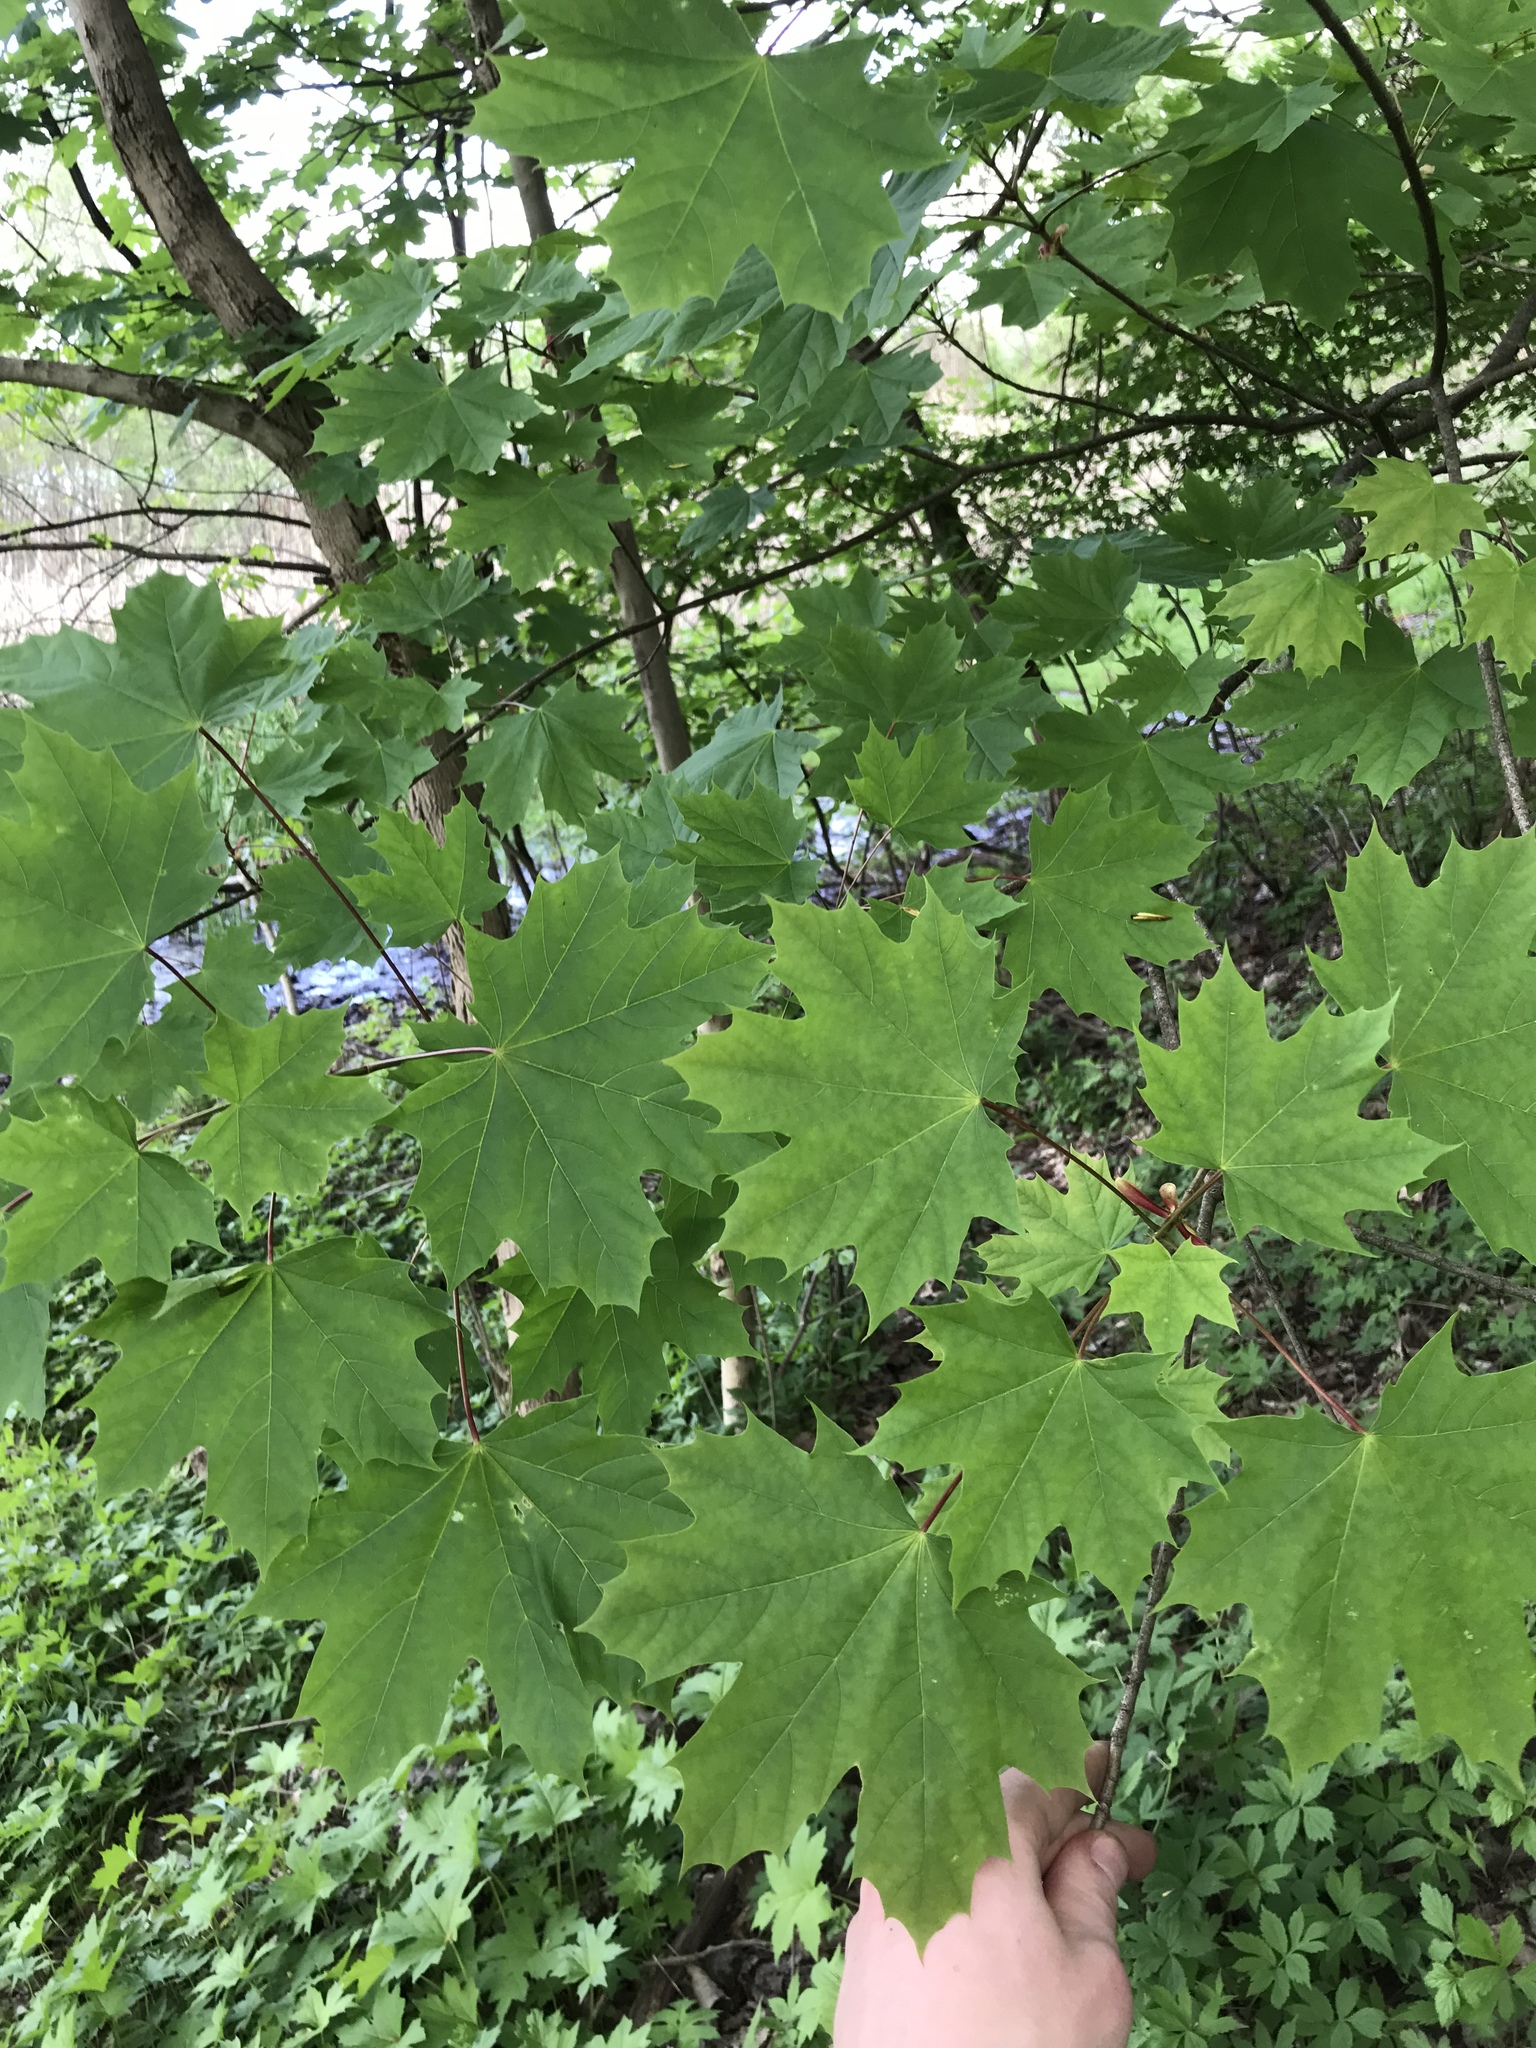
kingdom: Plantae
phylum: Tracheophyta
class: Magnoliopsida
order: Sapindales
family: Sapindaceae
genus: Acer
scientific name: Acer platanoides
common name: Norway maple
